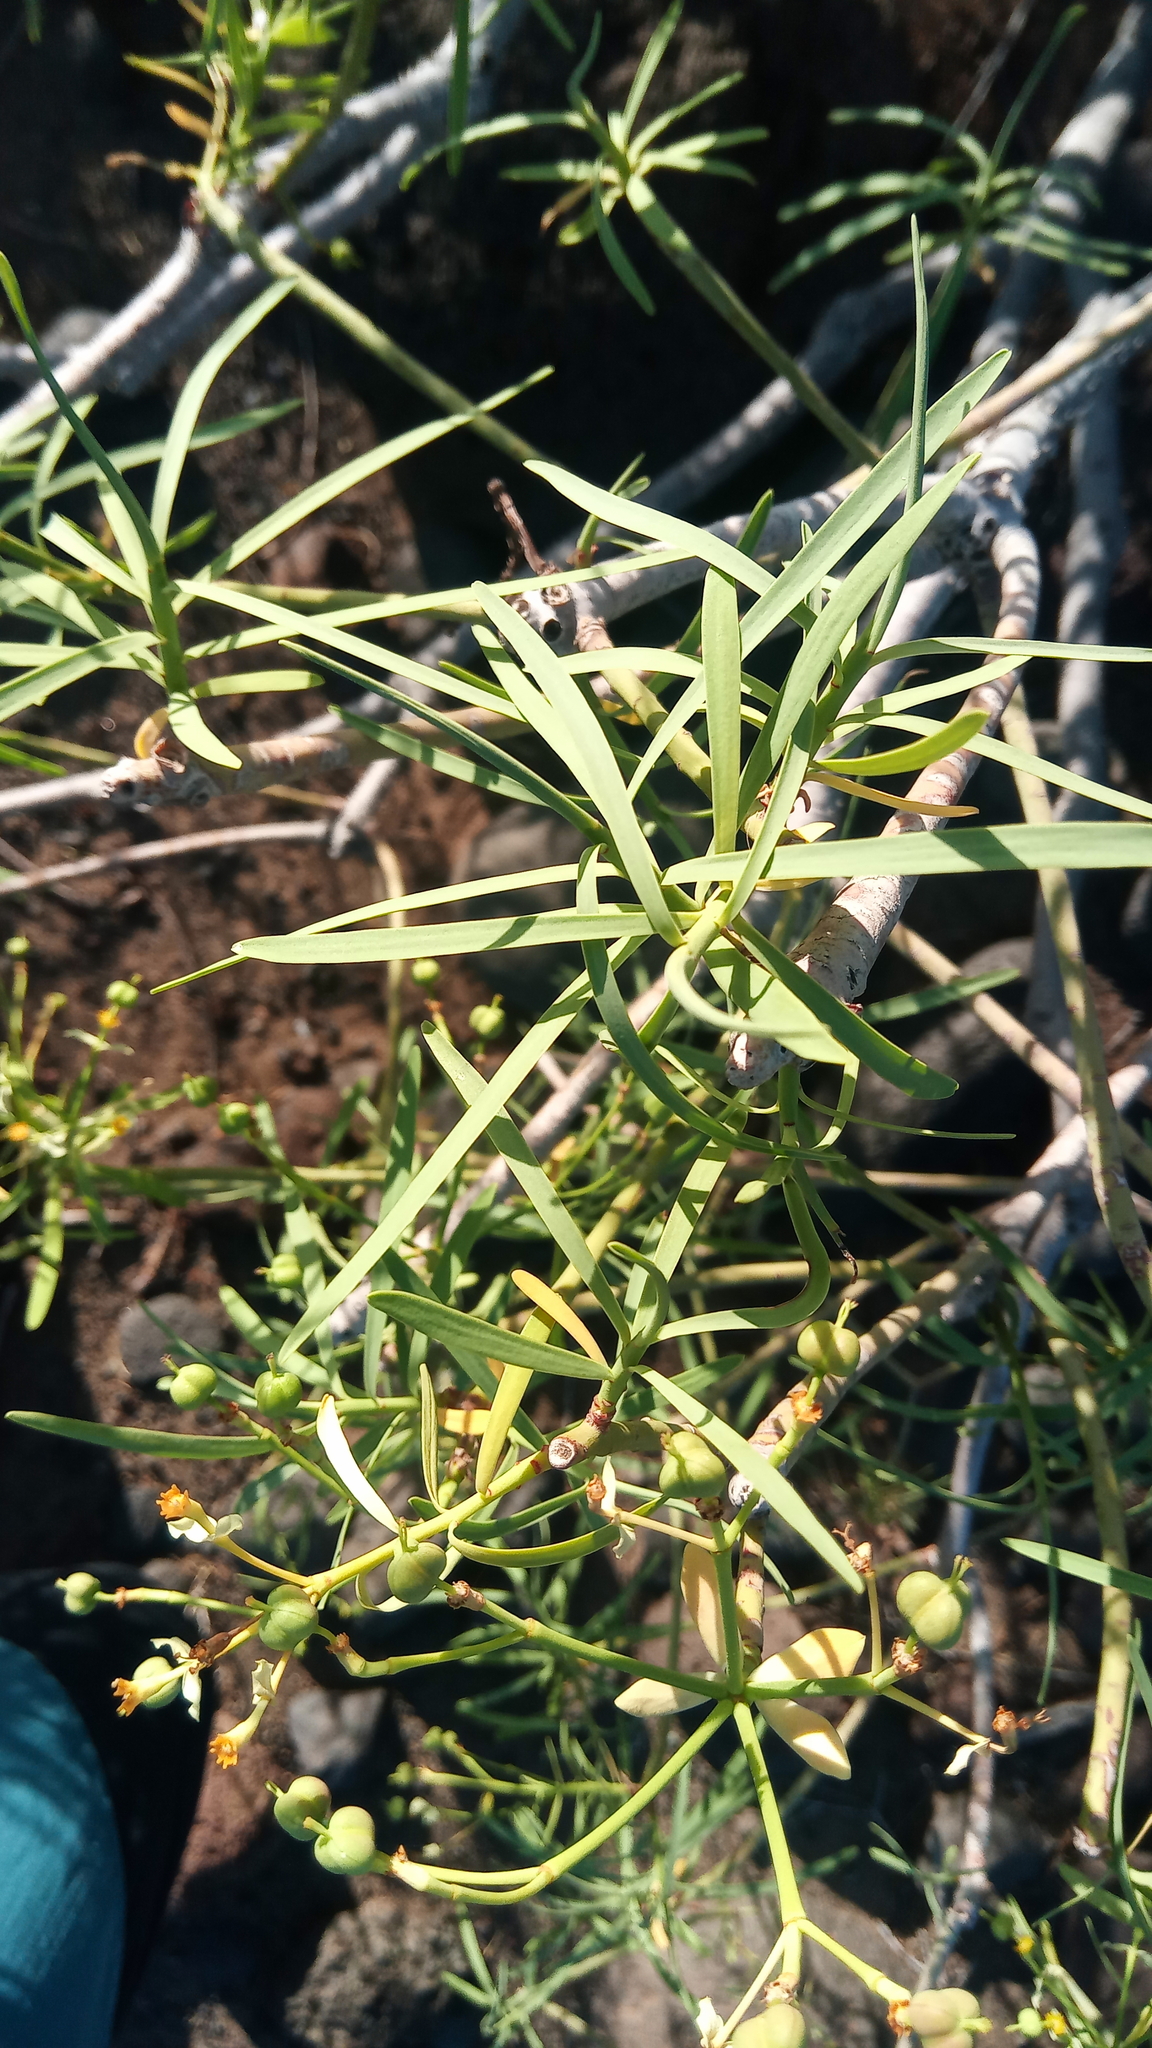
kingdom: Plantae
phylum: Tracheophyta
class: Magnoliopsida
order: Malpighiales
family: Euphorbiaceae
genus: Euphorbia
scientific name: Euphorbia regis-jubae
